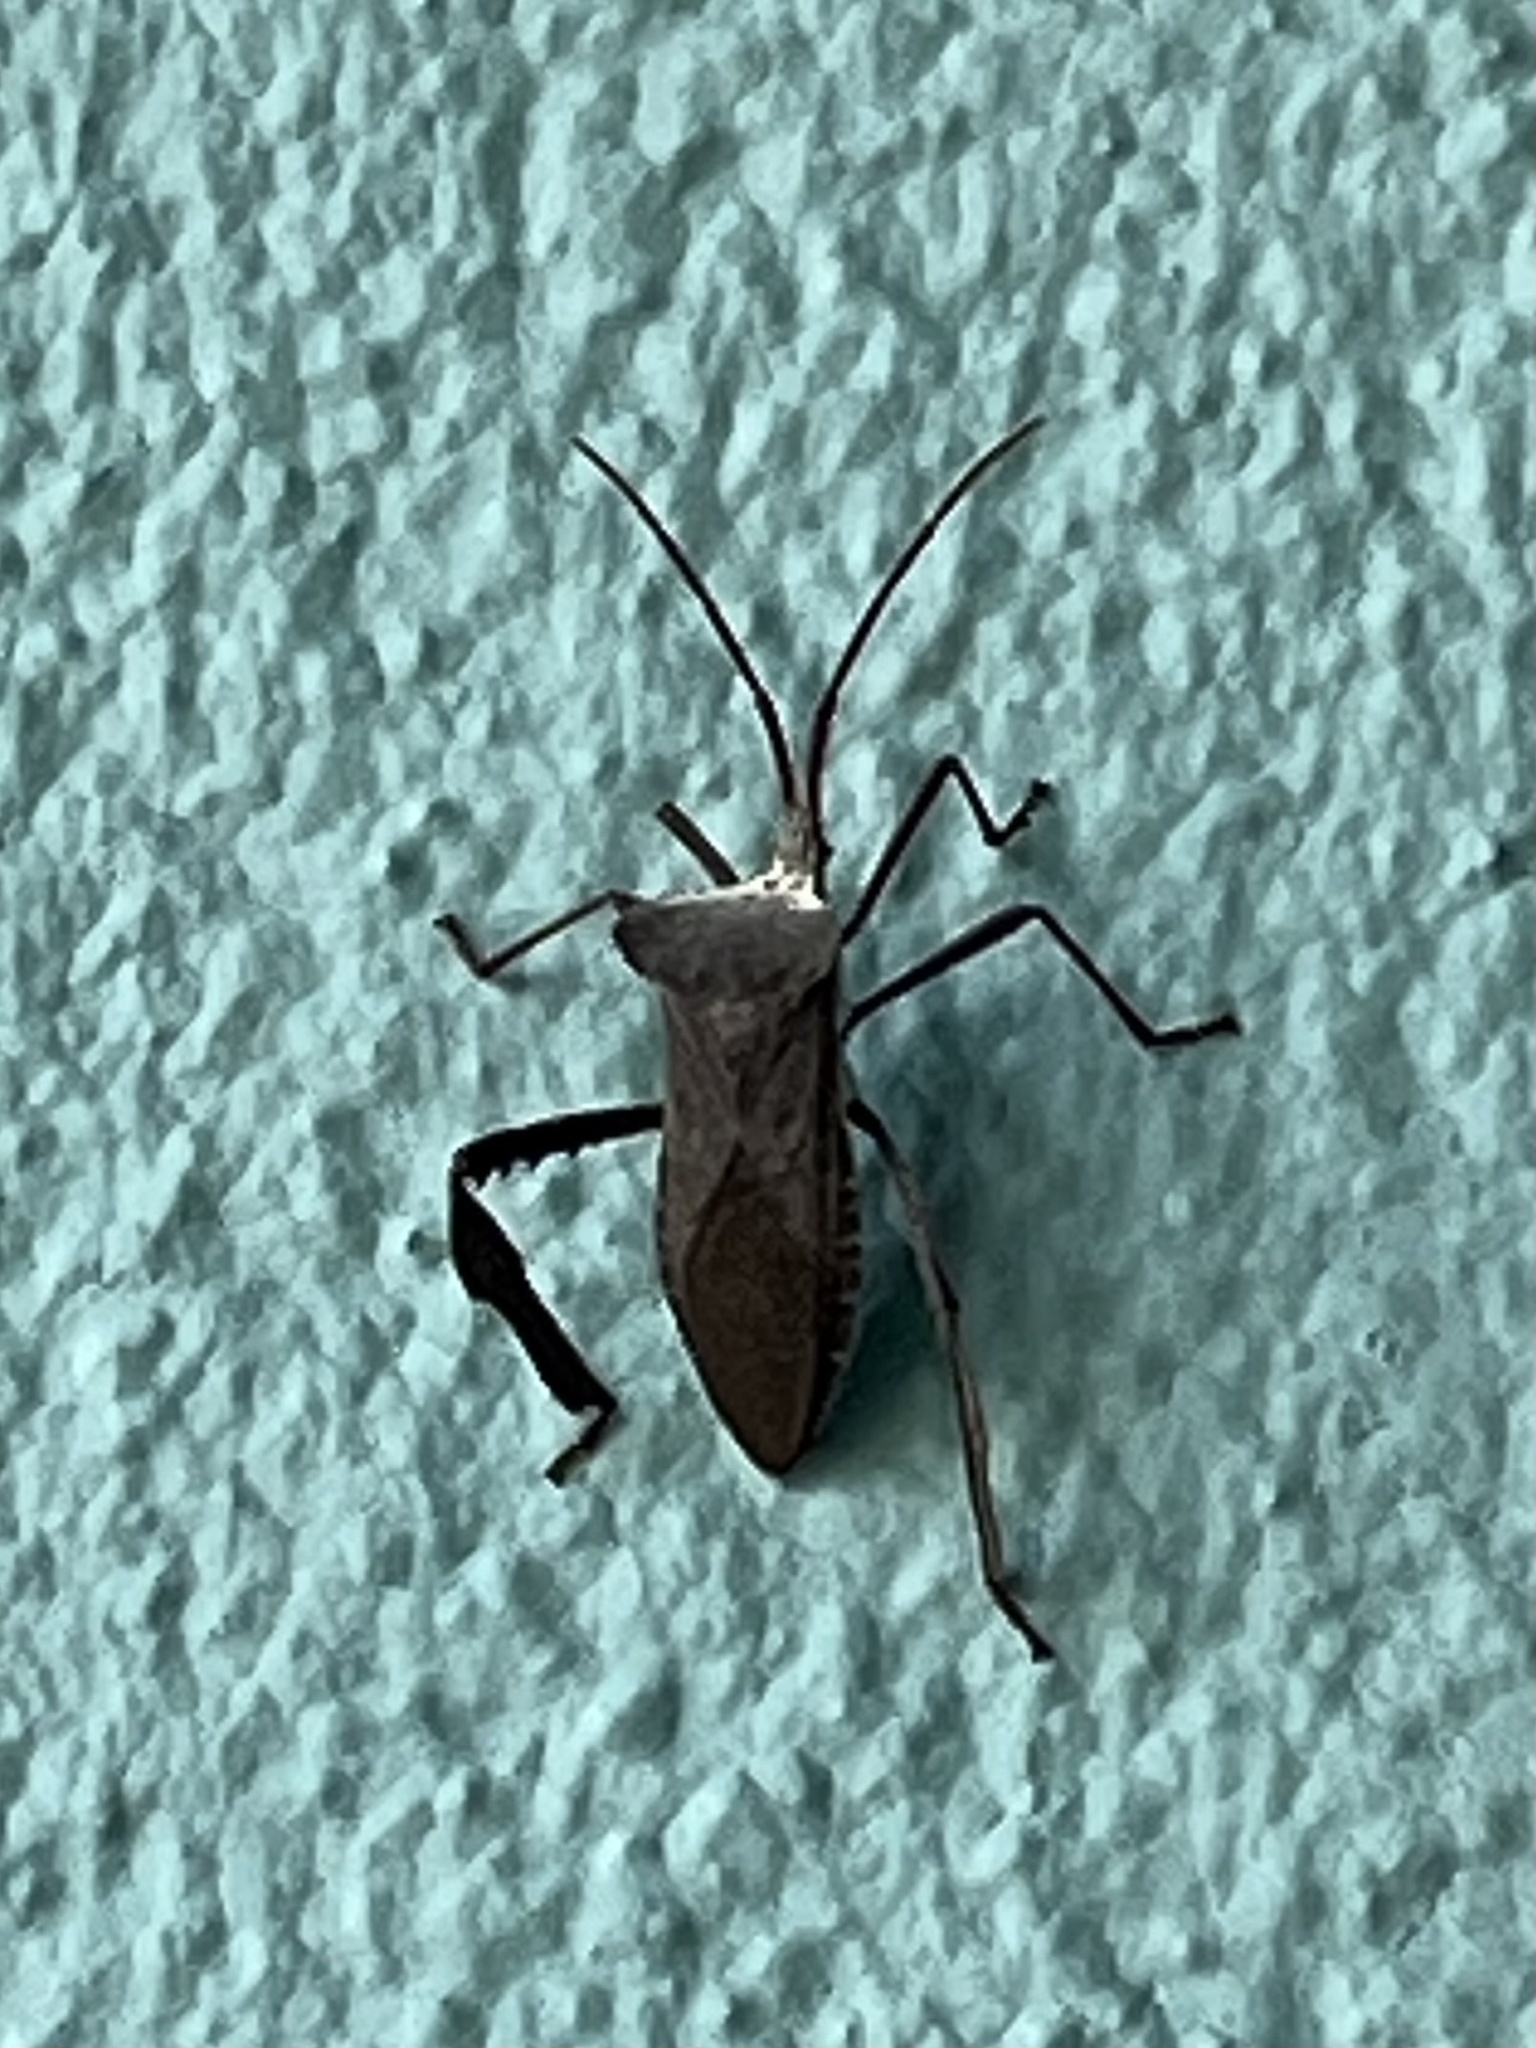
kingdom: Animalia
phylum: Arthropoda
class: Insecta
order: Hemiptera
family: Coreidae
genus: Acanthocephala
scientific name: Acanthocephala declivis
